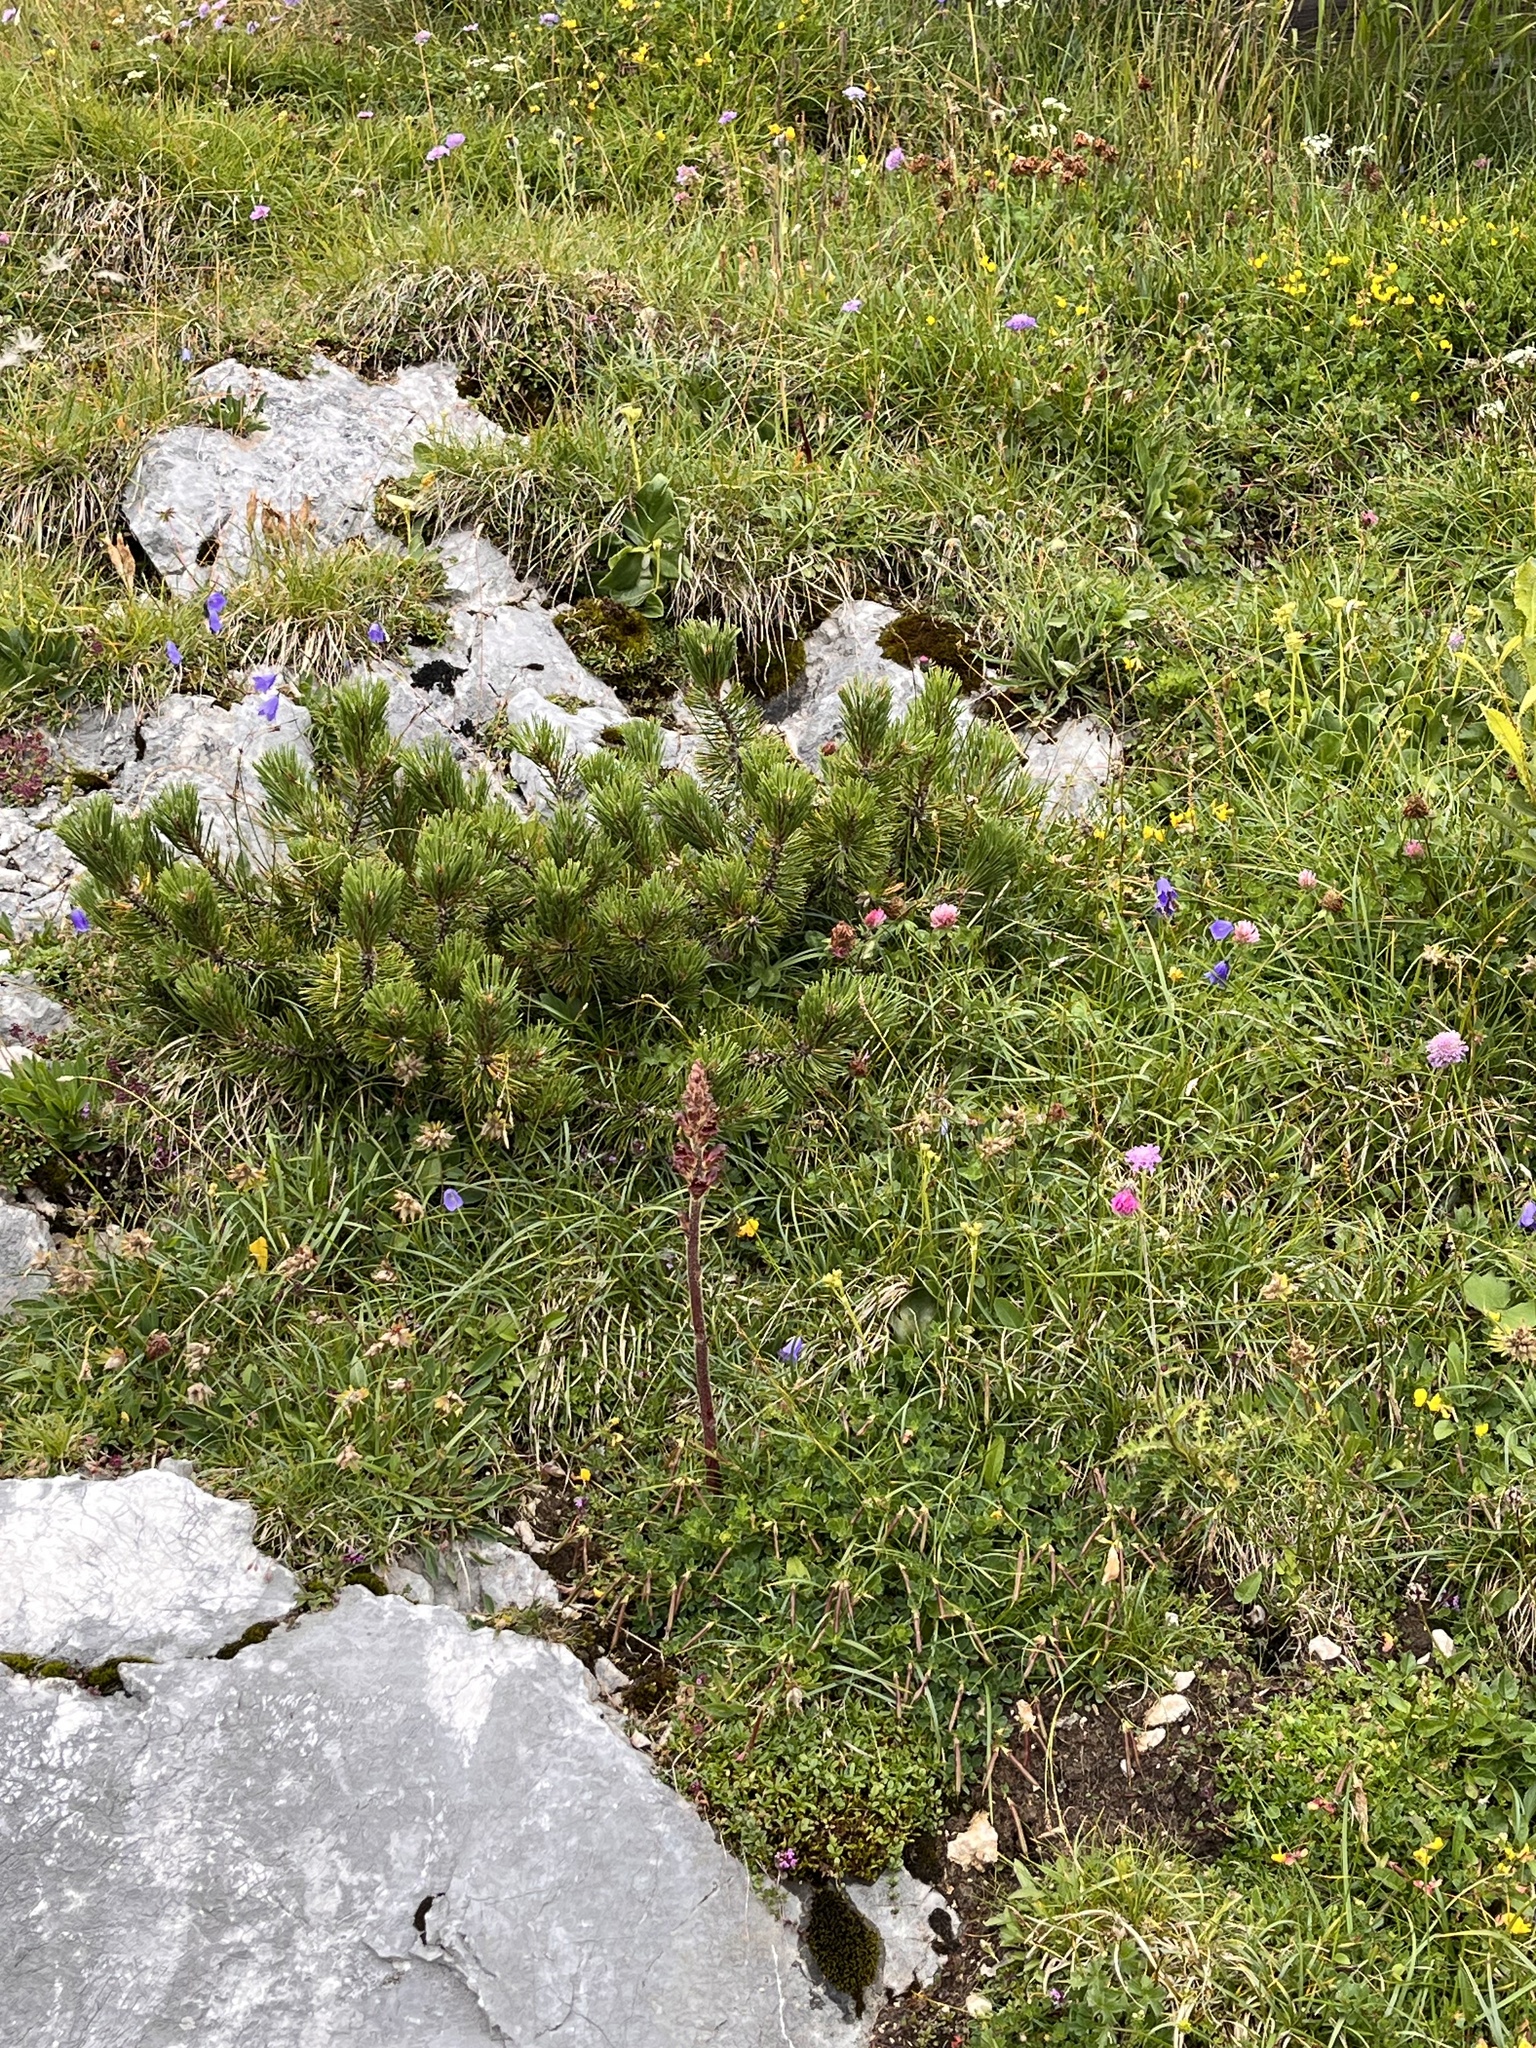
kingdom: Plantae
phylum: Tracheophyta
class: Pinopsida
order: Pinales
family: Pinaceae
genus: Pinus
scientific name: Pinus mugo
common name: Mugo pine
